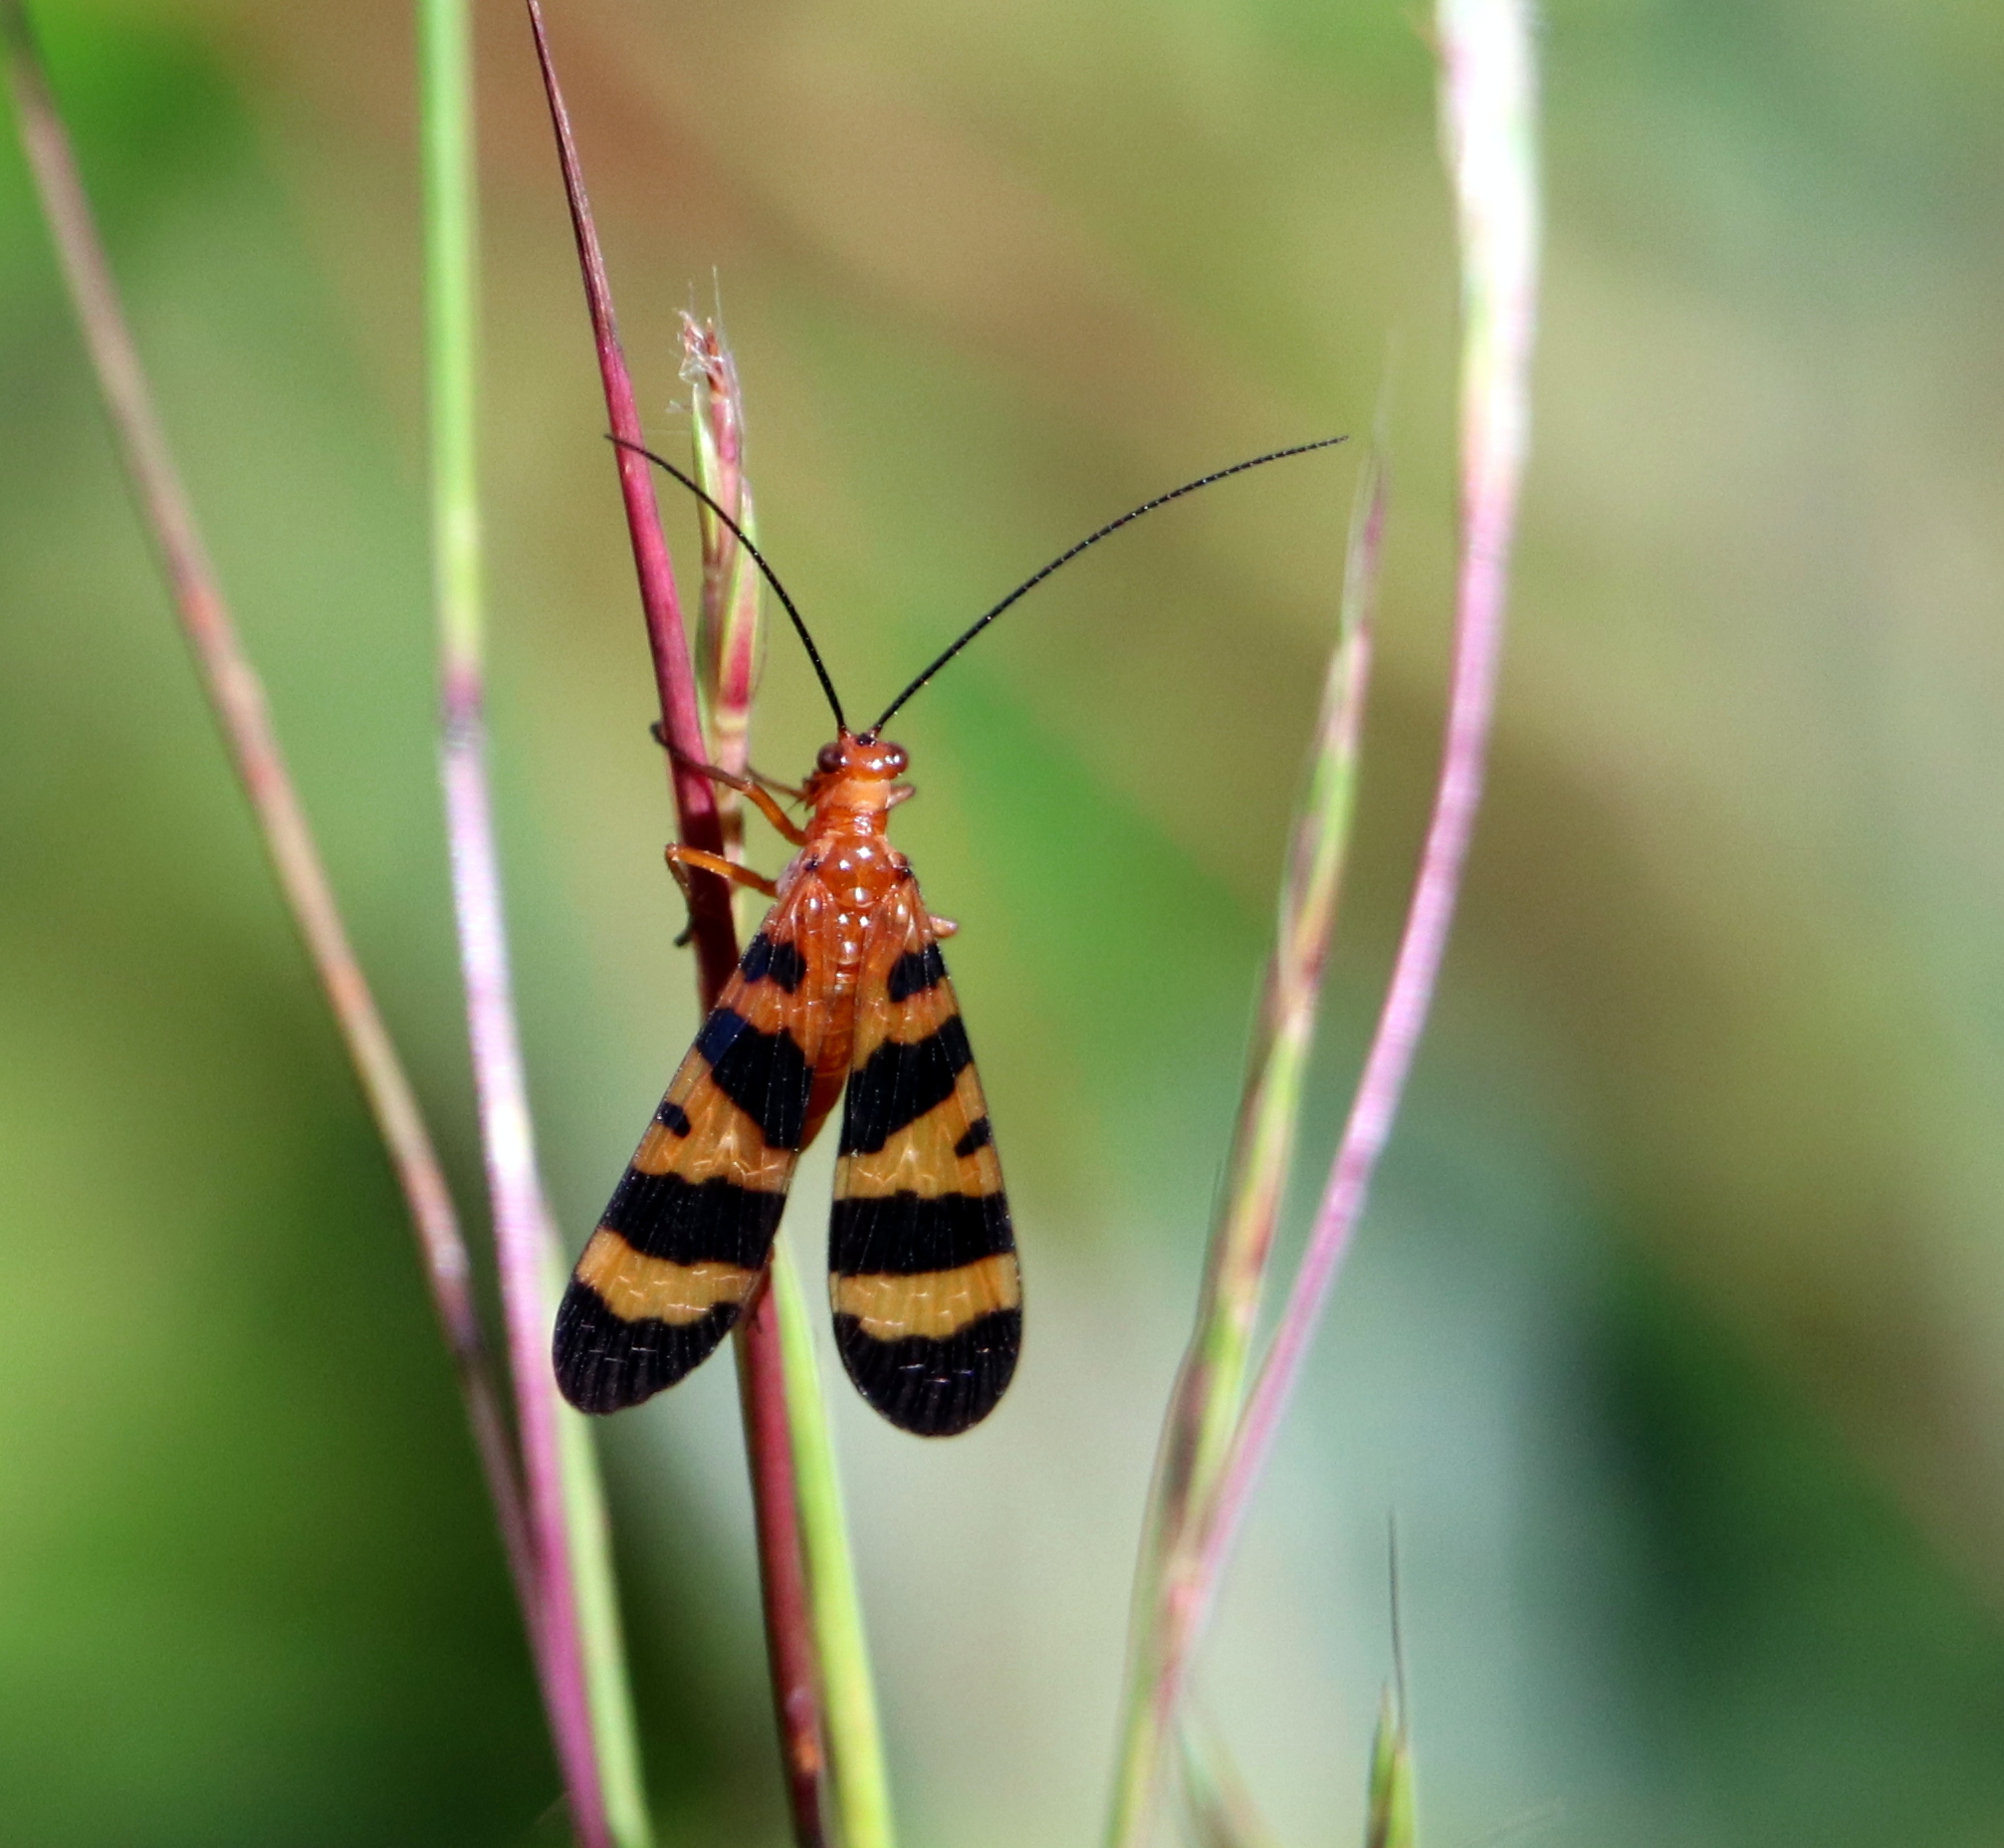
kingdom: Animalia
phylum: Arthropoda
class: Insecta
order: Mecoptera
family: Panorpidae
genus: Panorpa
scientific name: Panorpa americana
